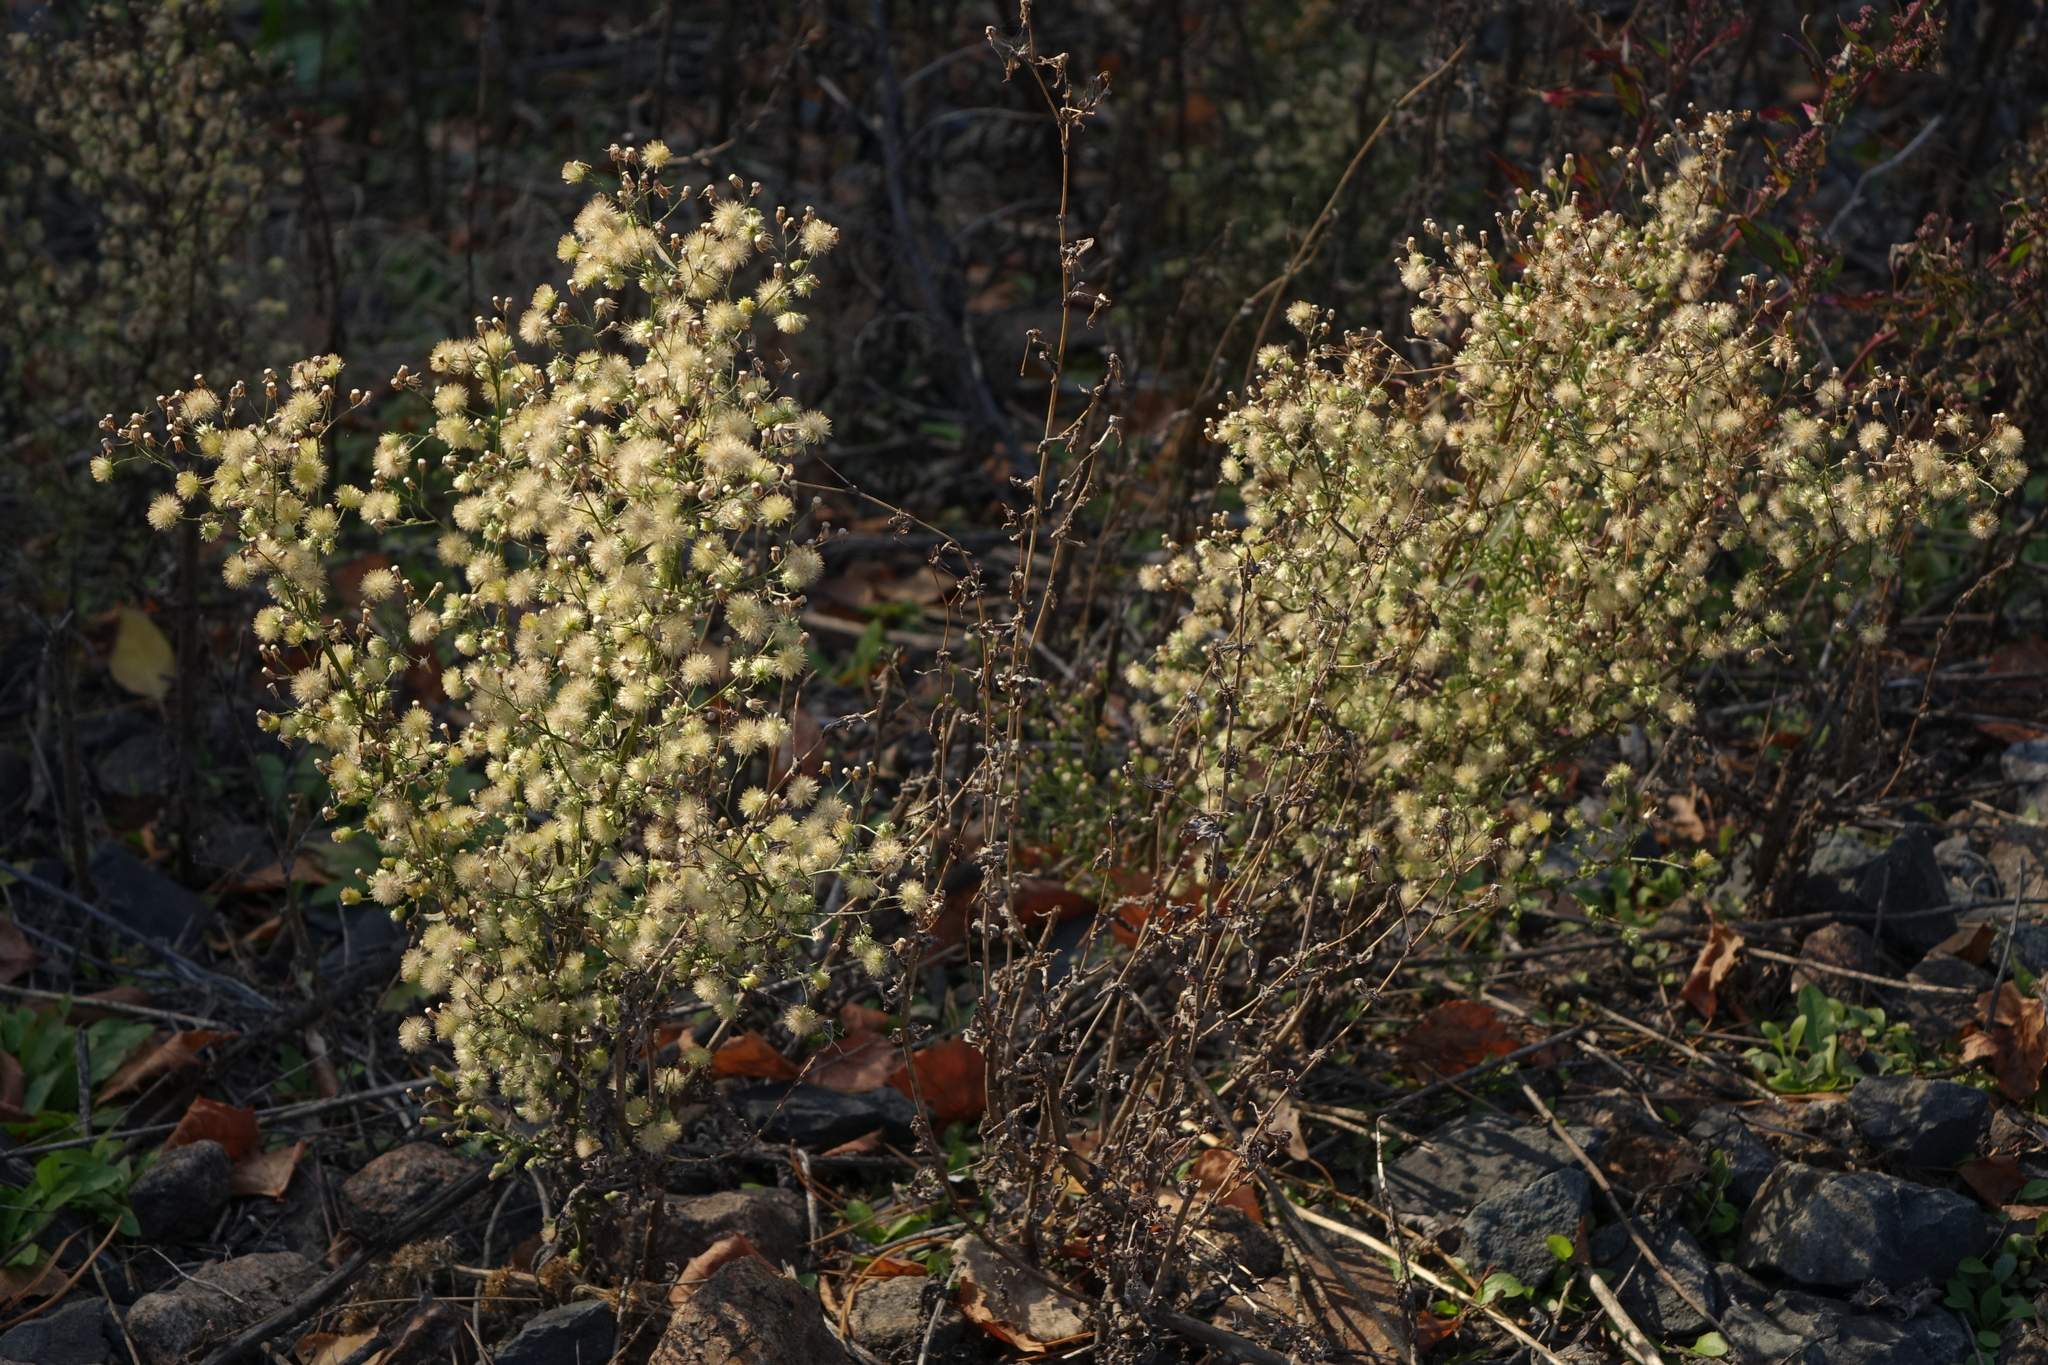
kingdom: Plantae
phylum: Tracheophyta
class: Magnoliopsida
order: Asterales
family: Asteraceae
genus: Erigeron
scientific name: Erigeron canadensis
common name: Canadian fleabane
